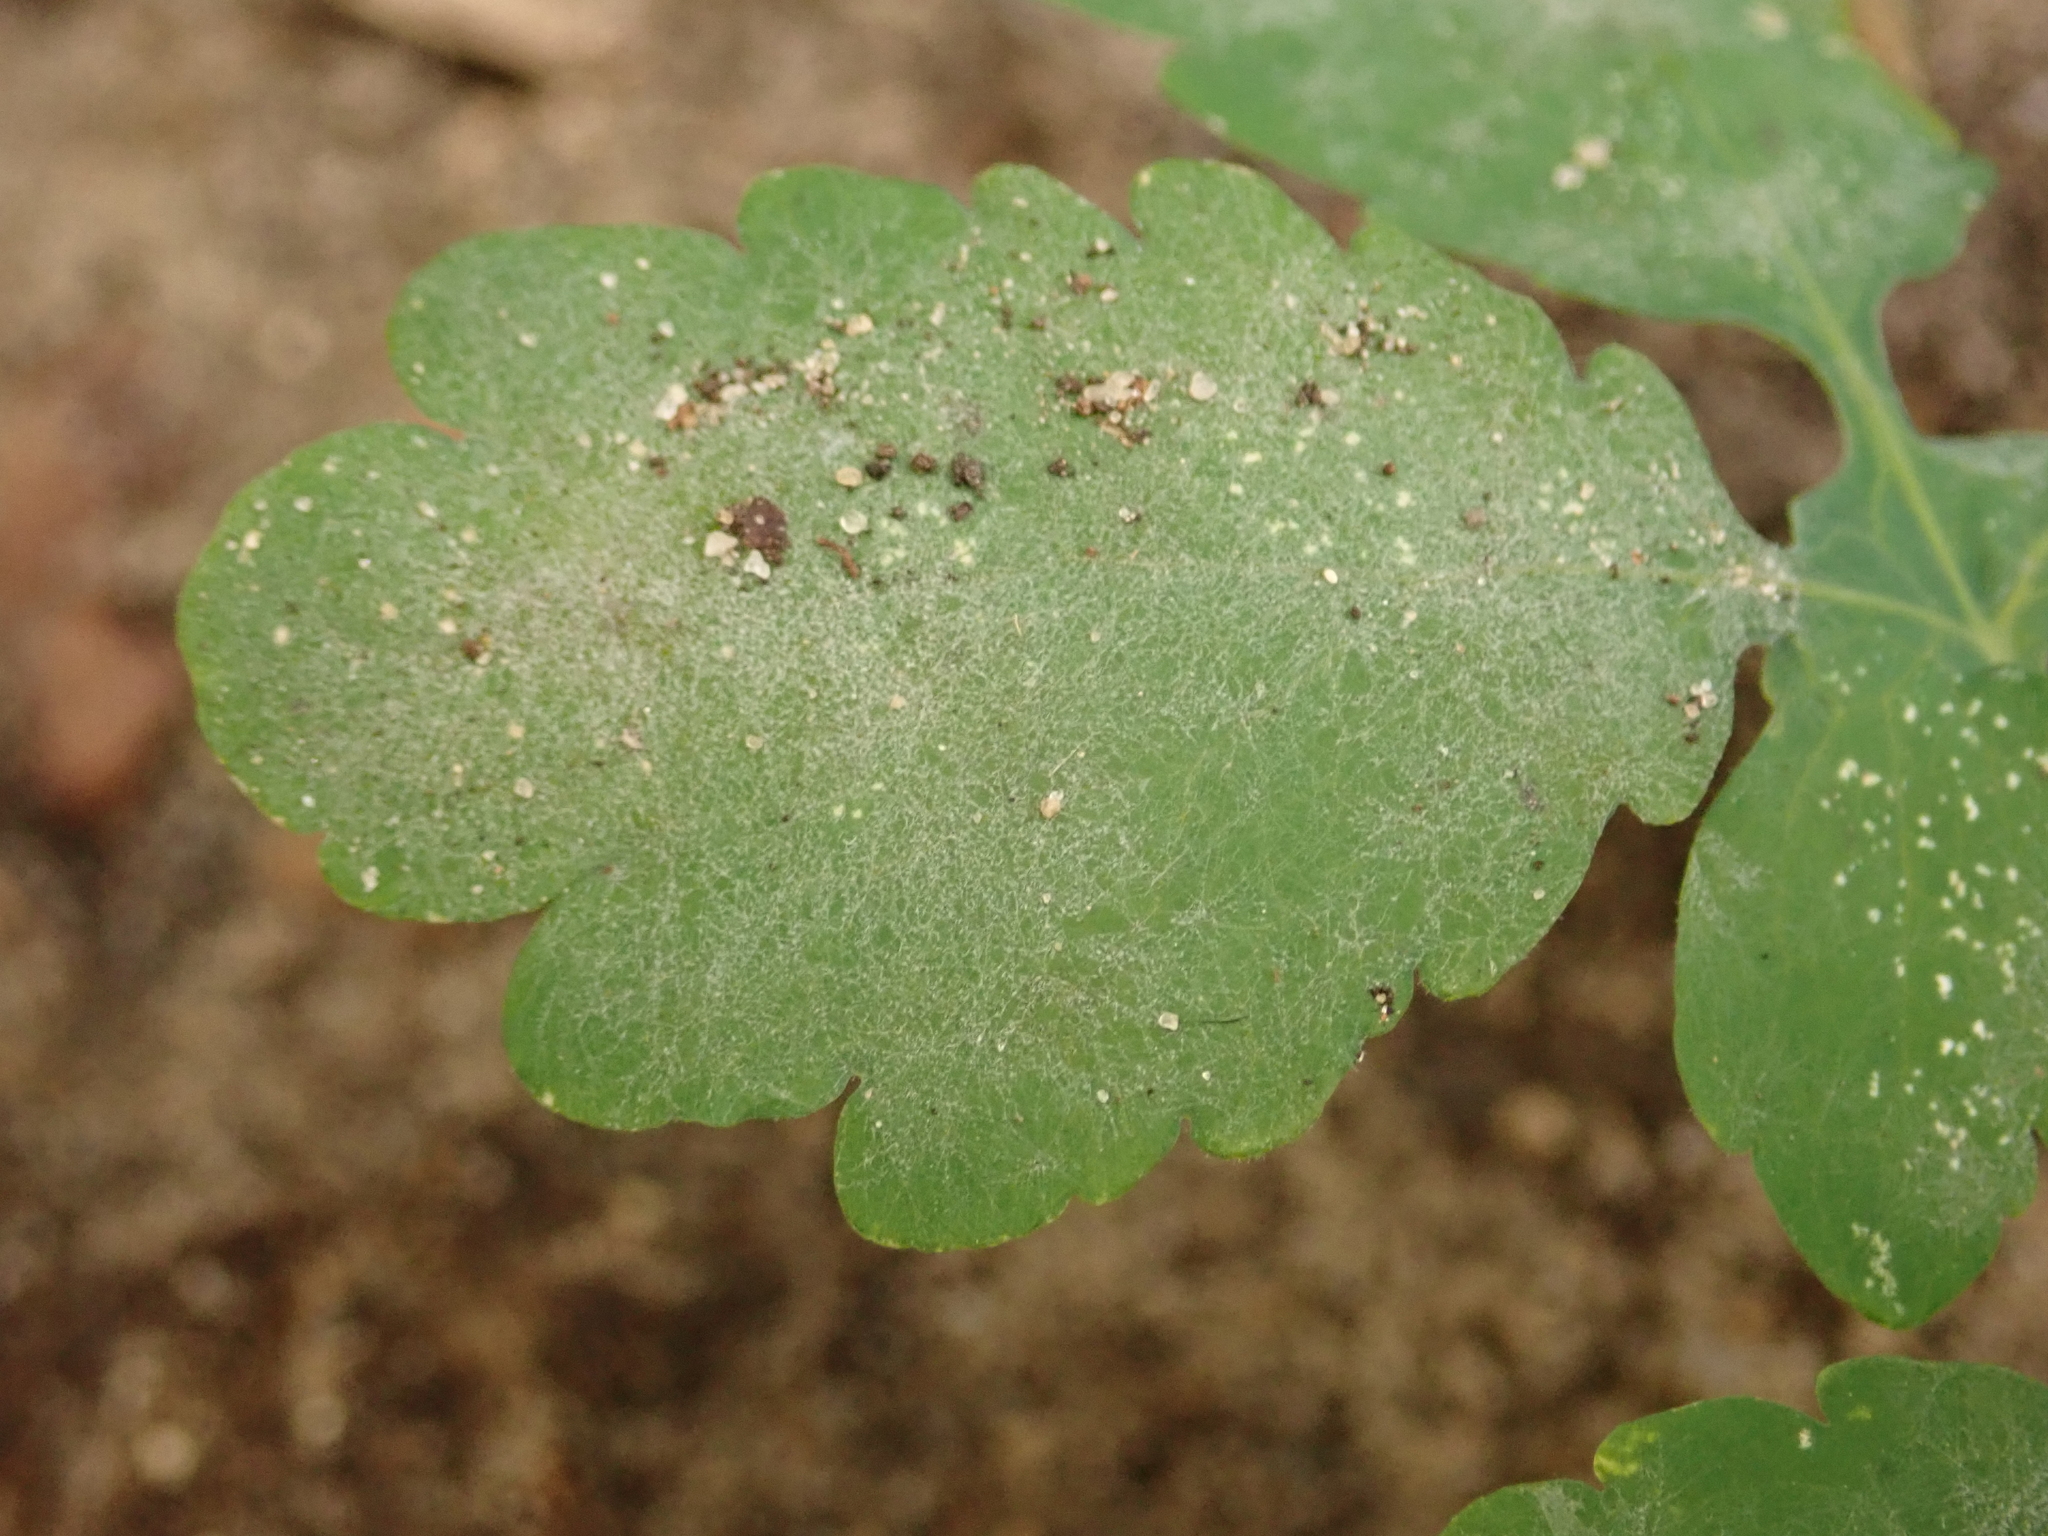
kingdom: Fungi
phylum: Ascomycota
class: Leotiomycetes
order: Helotiales
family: Erysiphaceae
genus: Erysiphe
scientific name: Erysiphe macleayae
